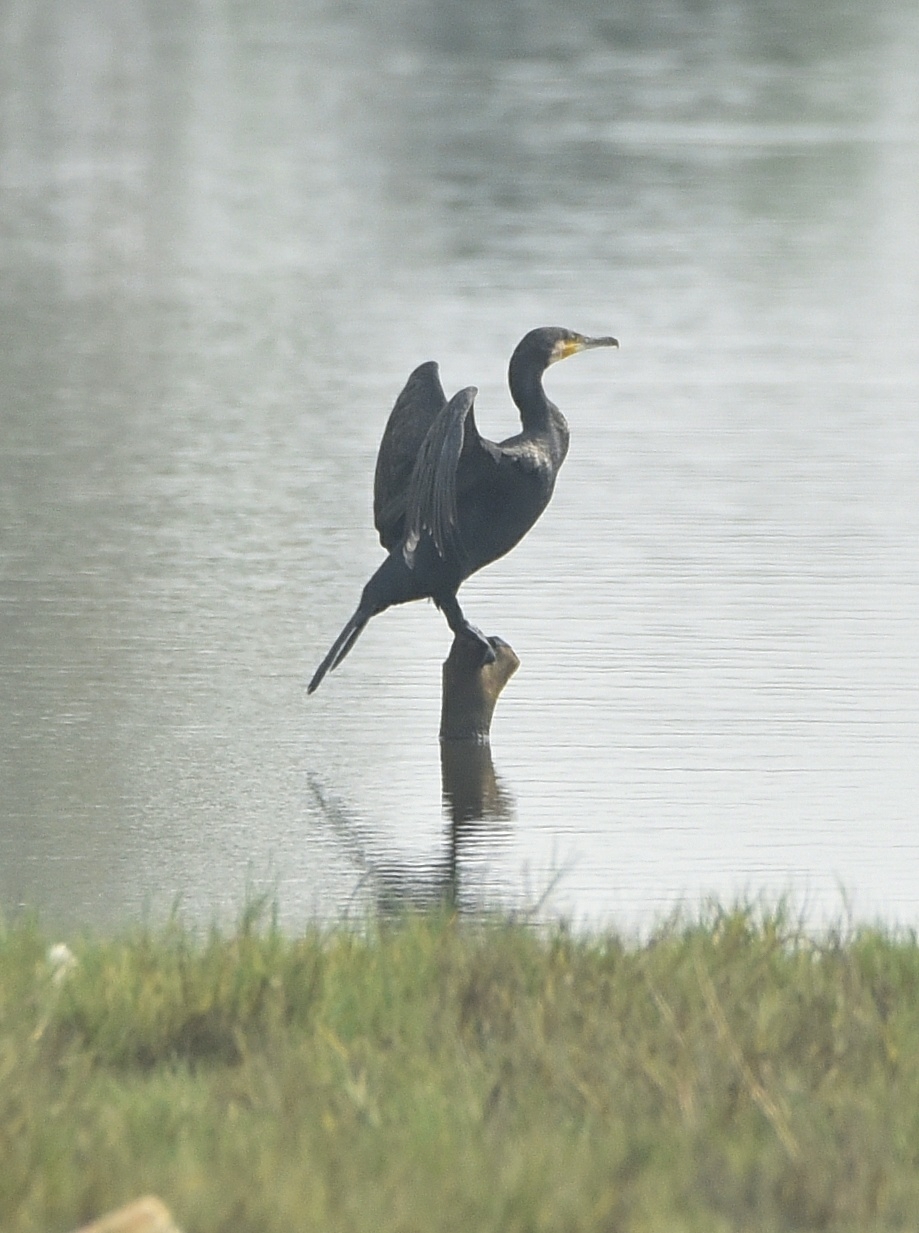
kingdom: Animalia
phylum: Chordata
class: Aves
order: Suliformes
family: Phalacrocoracidae
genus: Phalacrocorax
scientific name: Phalacrocorax carbo
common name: Great cormorant
